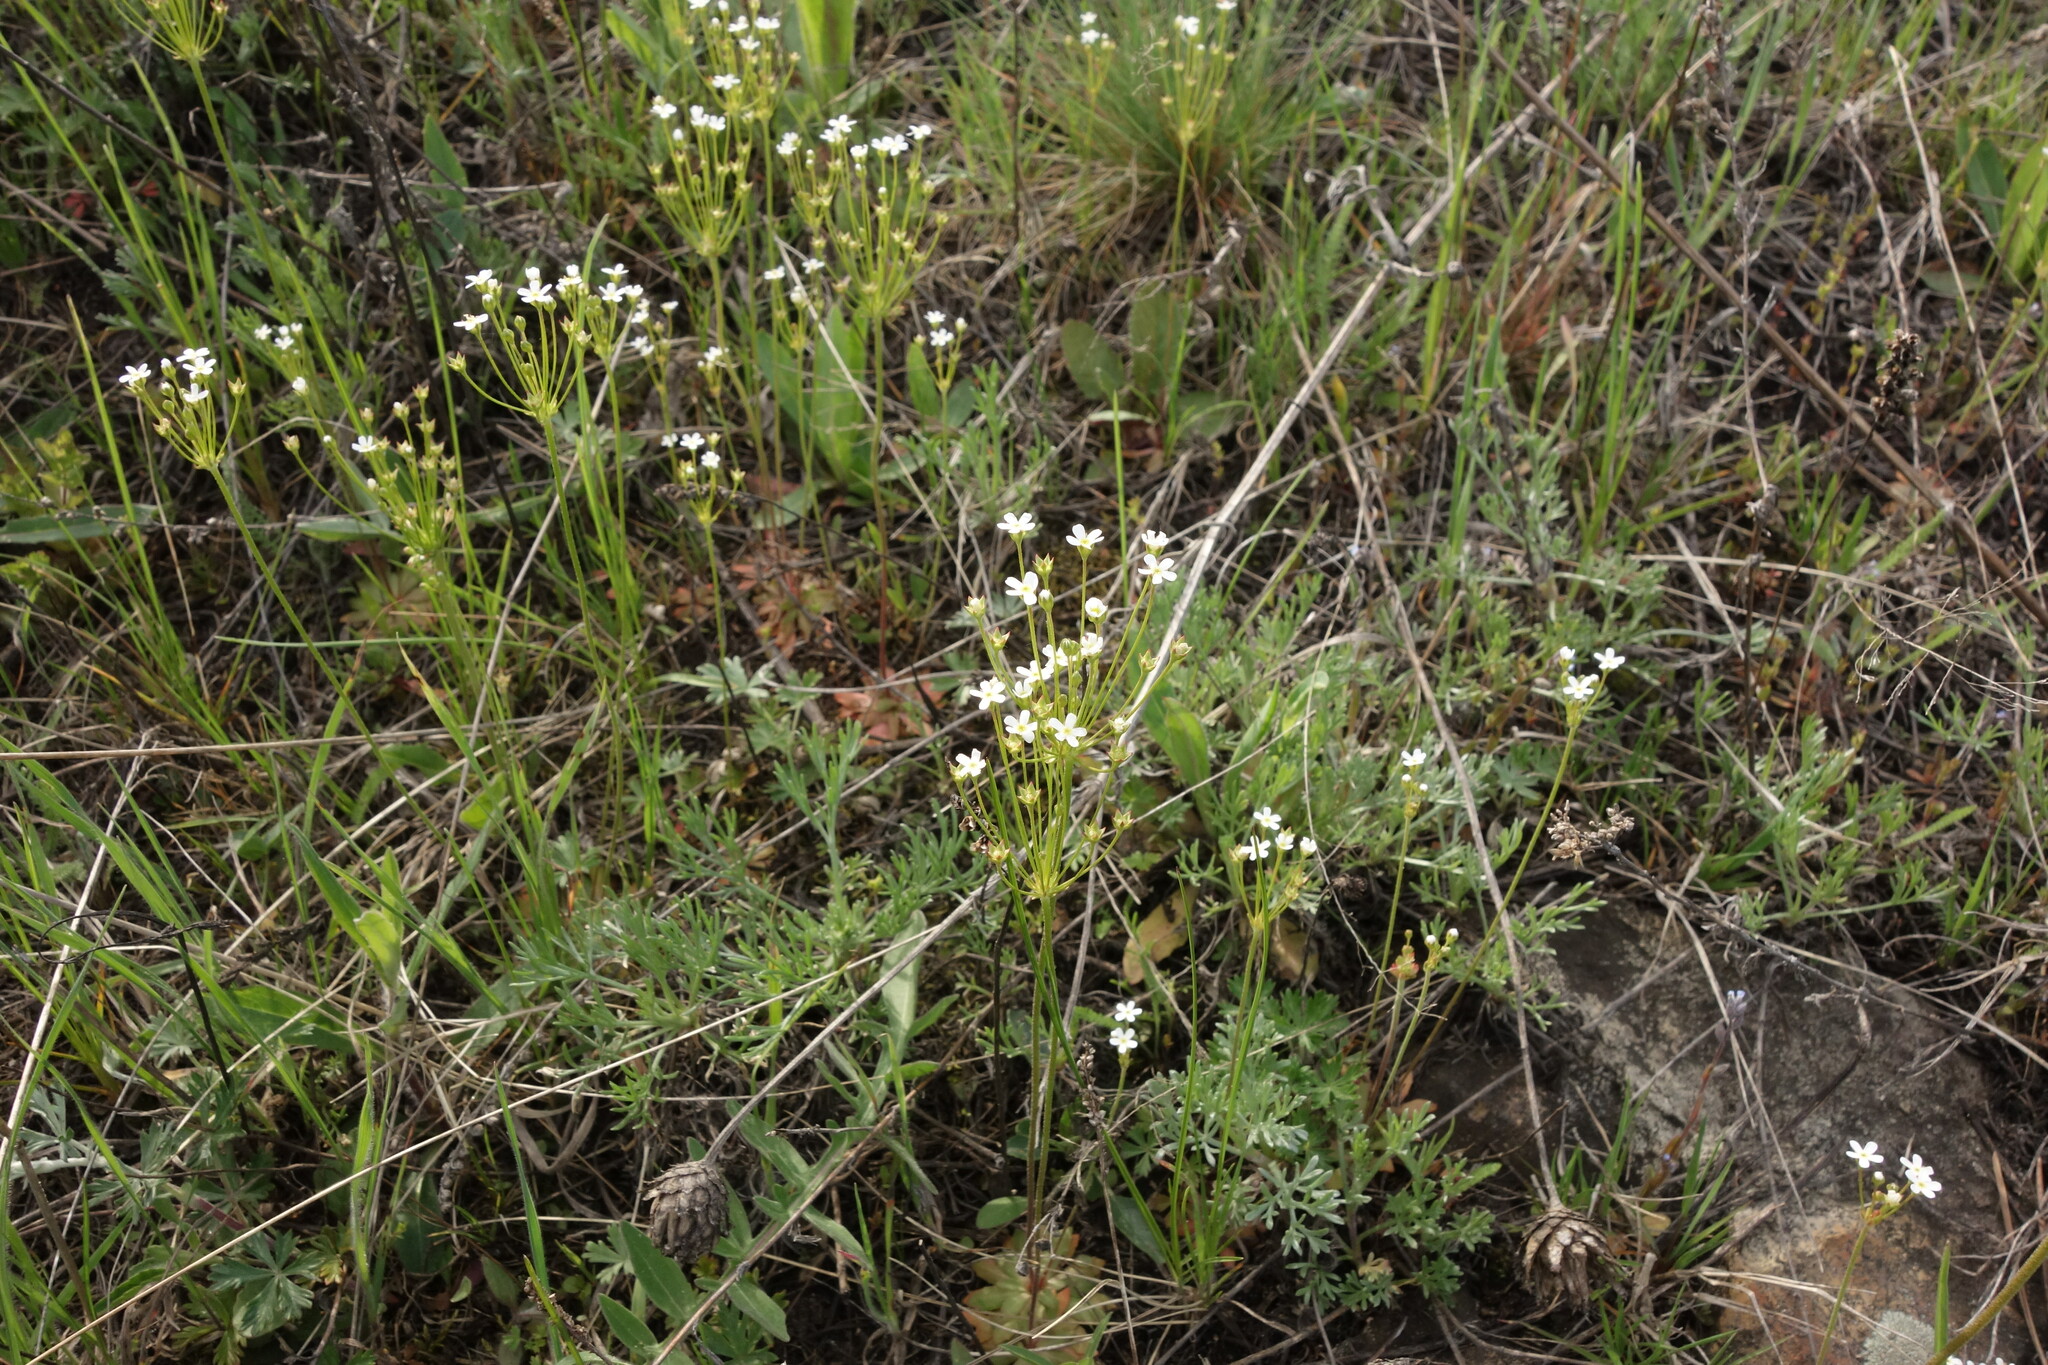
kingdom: Plantae
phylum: Tracheophyta
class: Magnoliopsida
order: Ericales
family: Primulaceae
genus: Androsace
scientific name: Androsace septentrionalis
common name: Hairy northern fairy-candelabra
